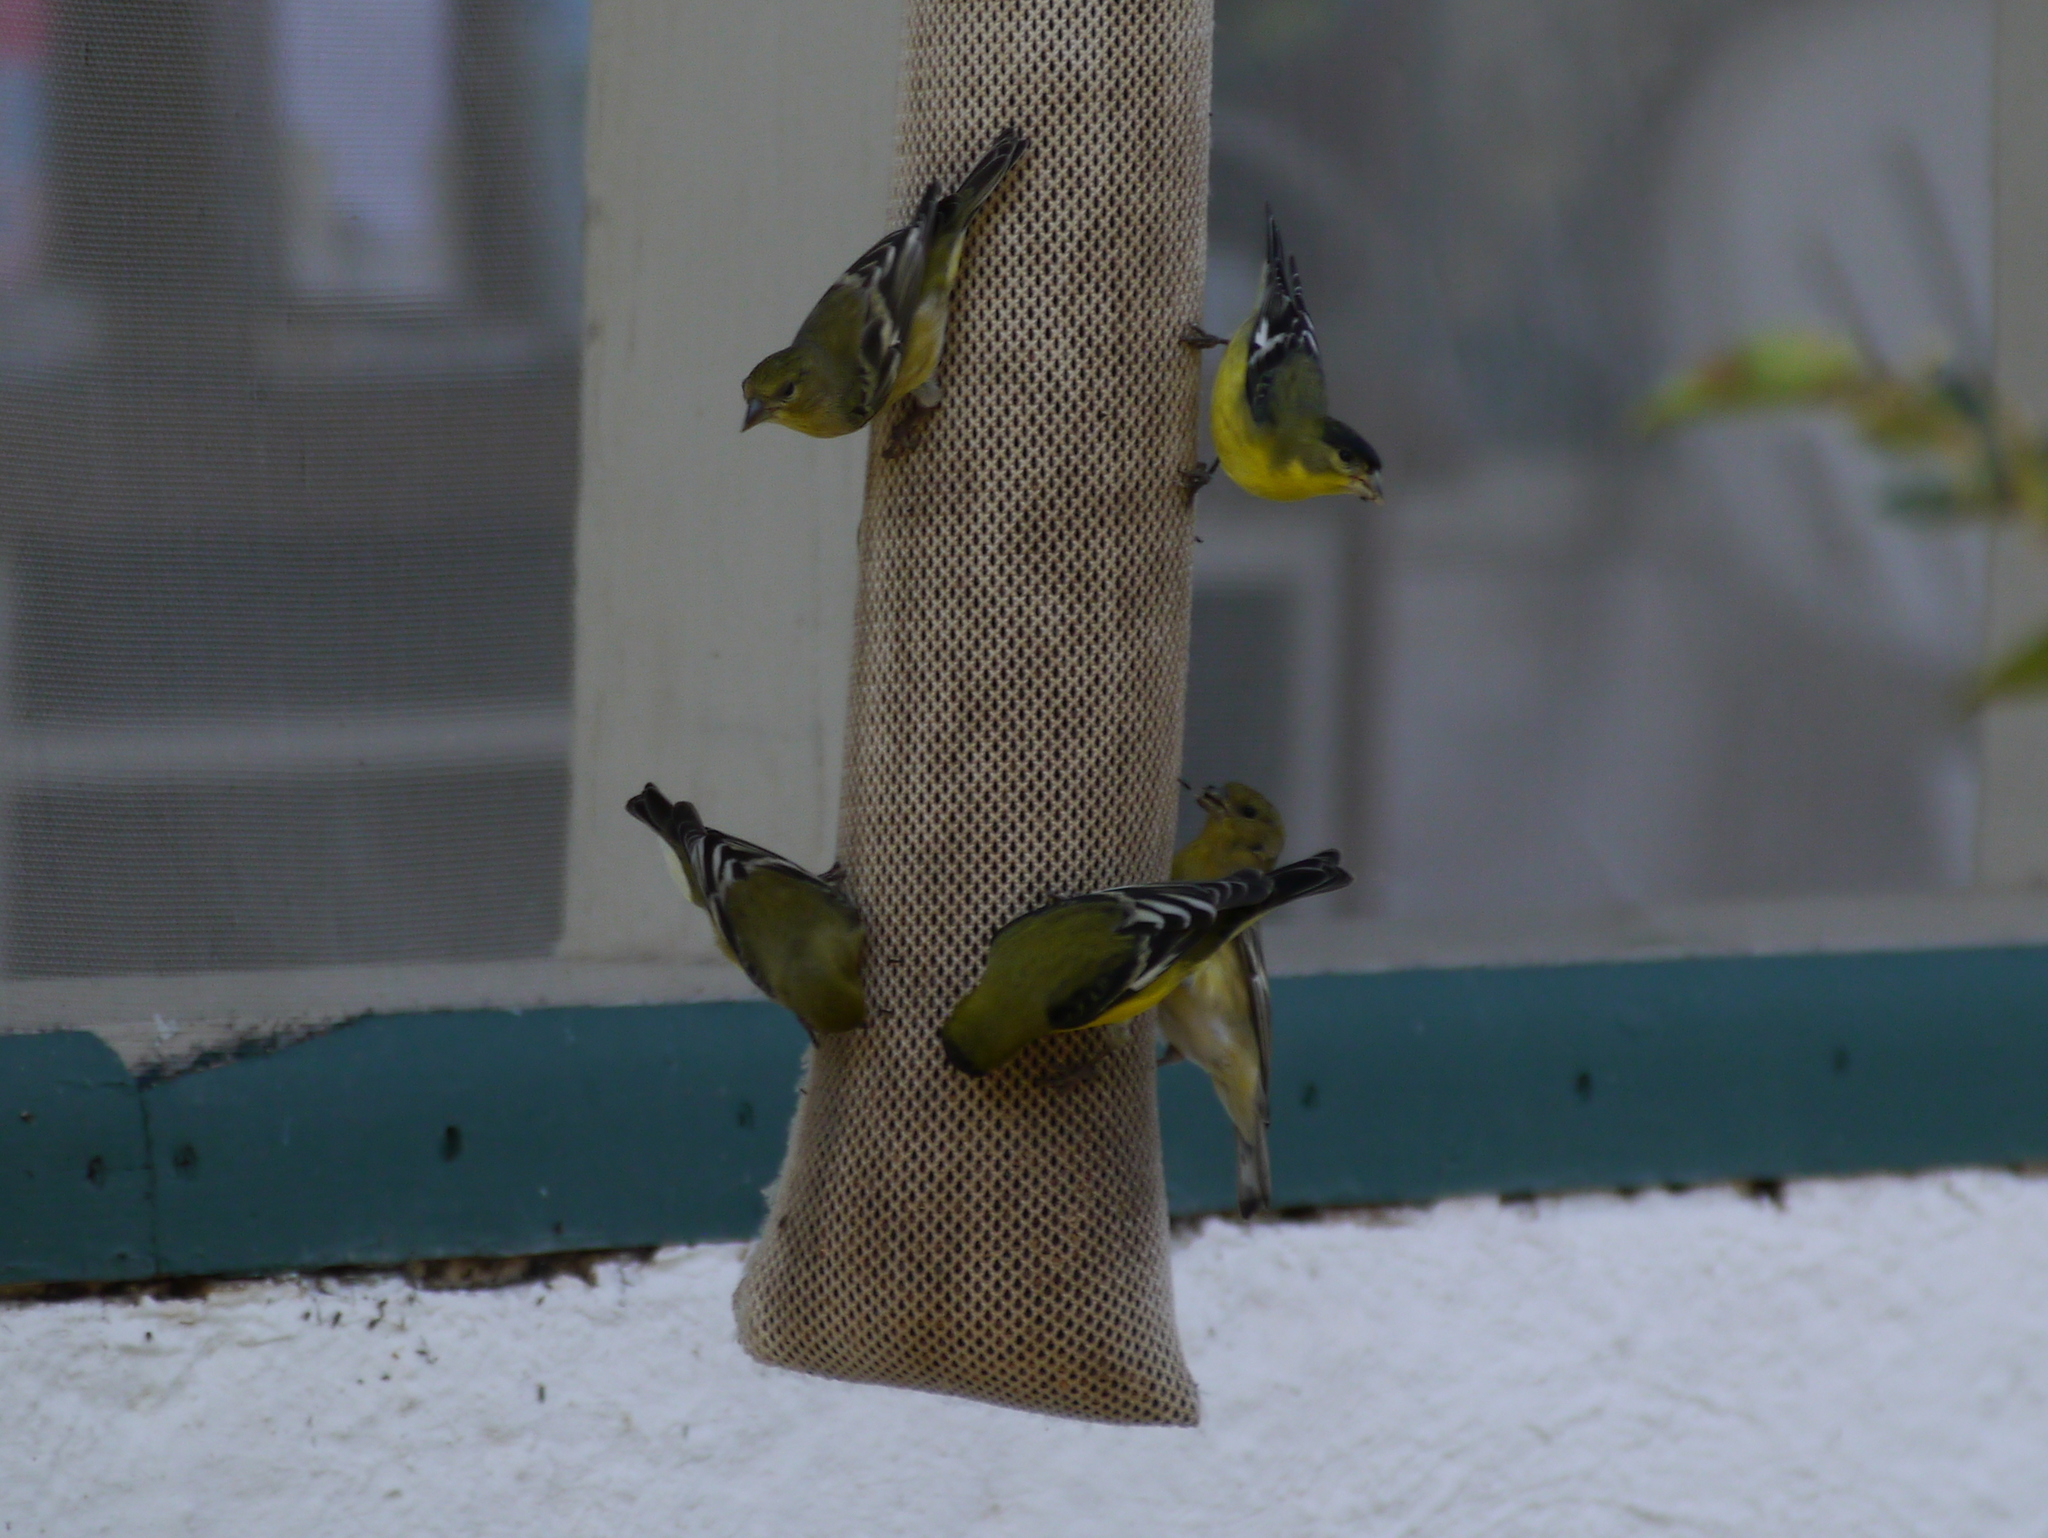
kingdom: Animalia
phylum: Chordata
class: Aves
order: Passeriformes
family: Fringillidae
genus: Spinus
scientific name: Spinus psaltria
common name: Lesser goldfinch
